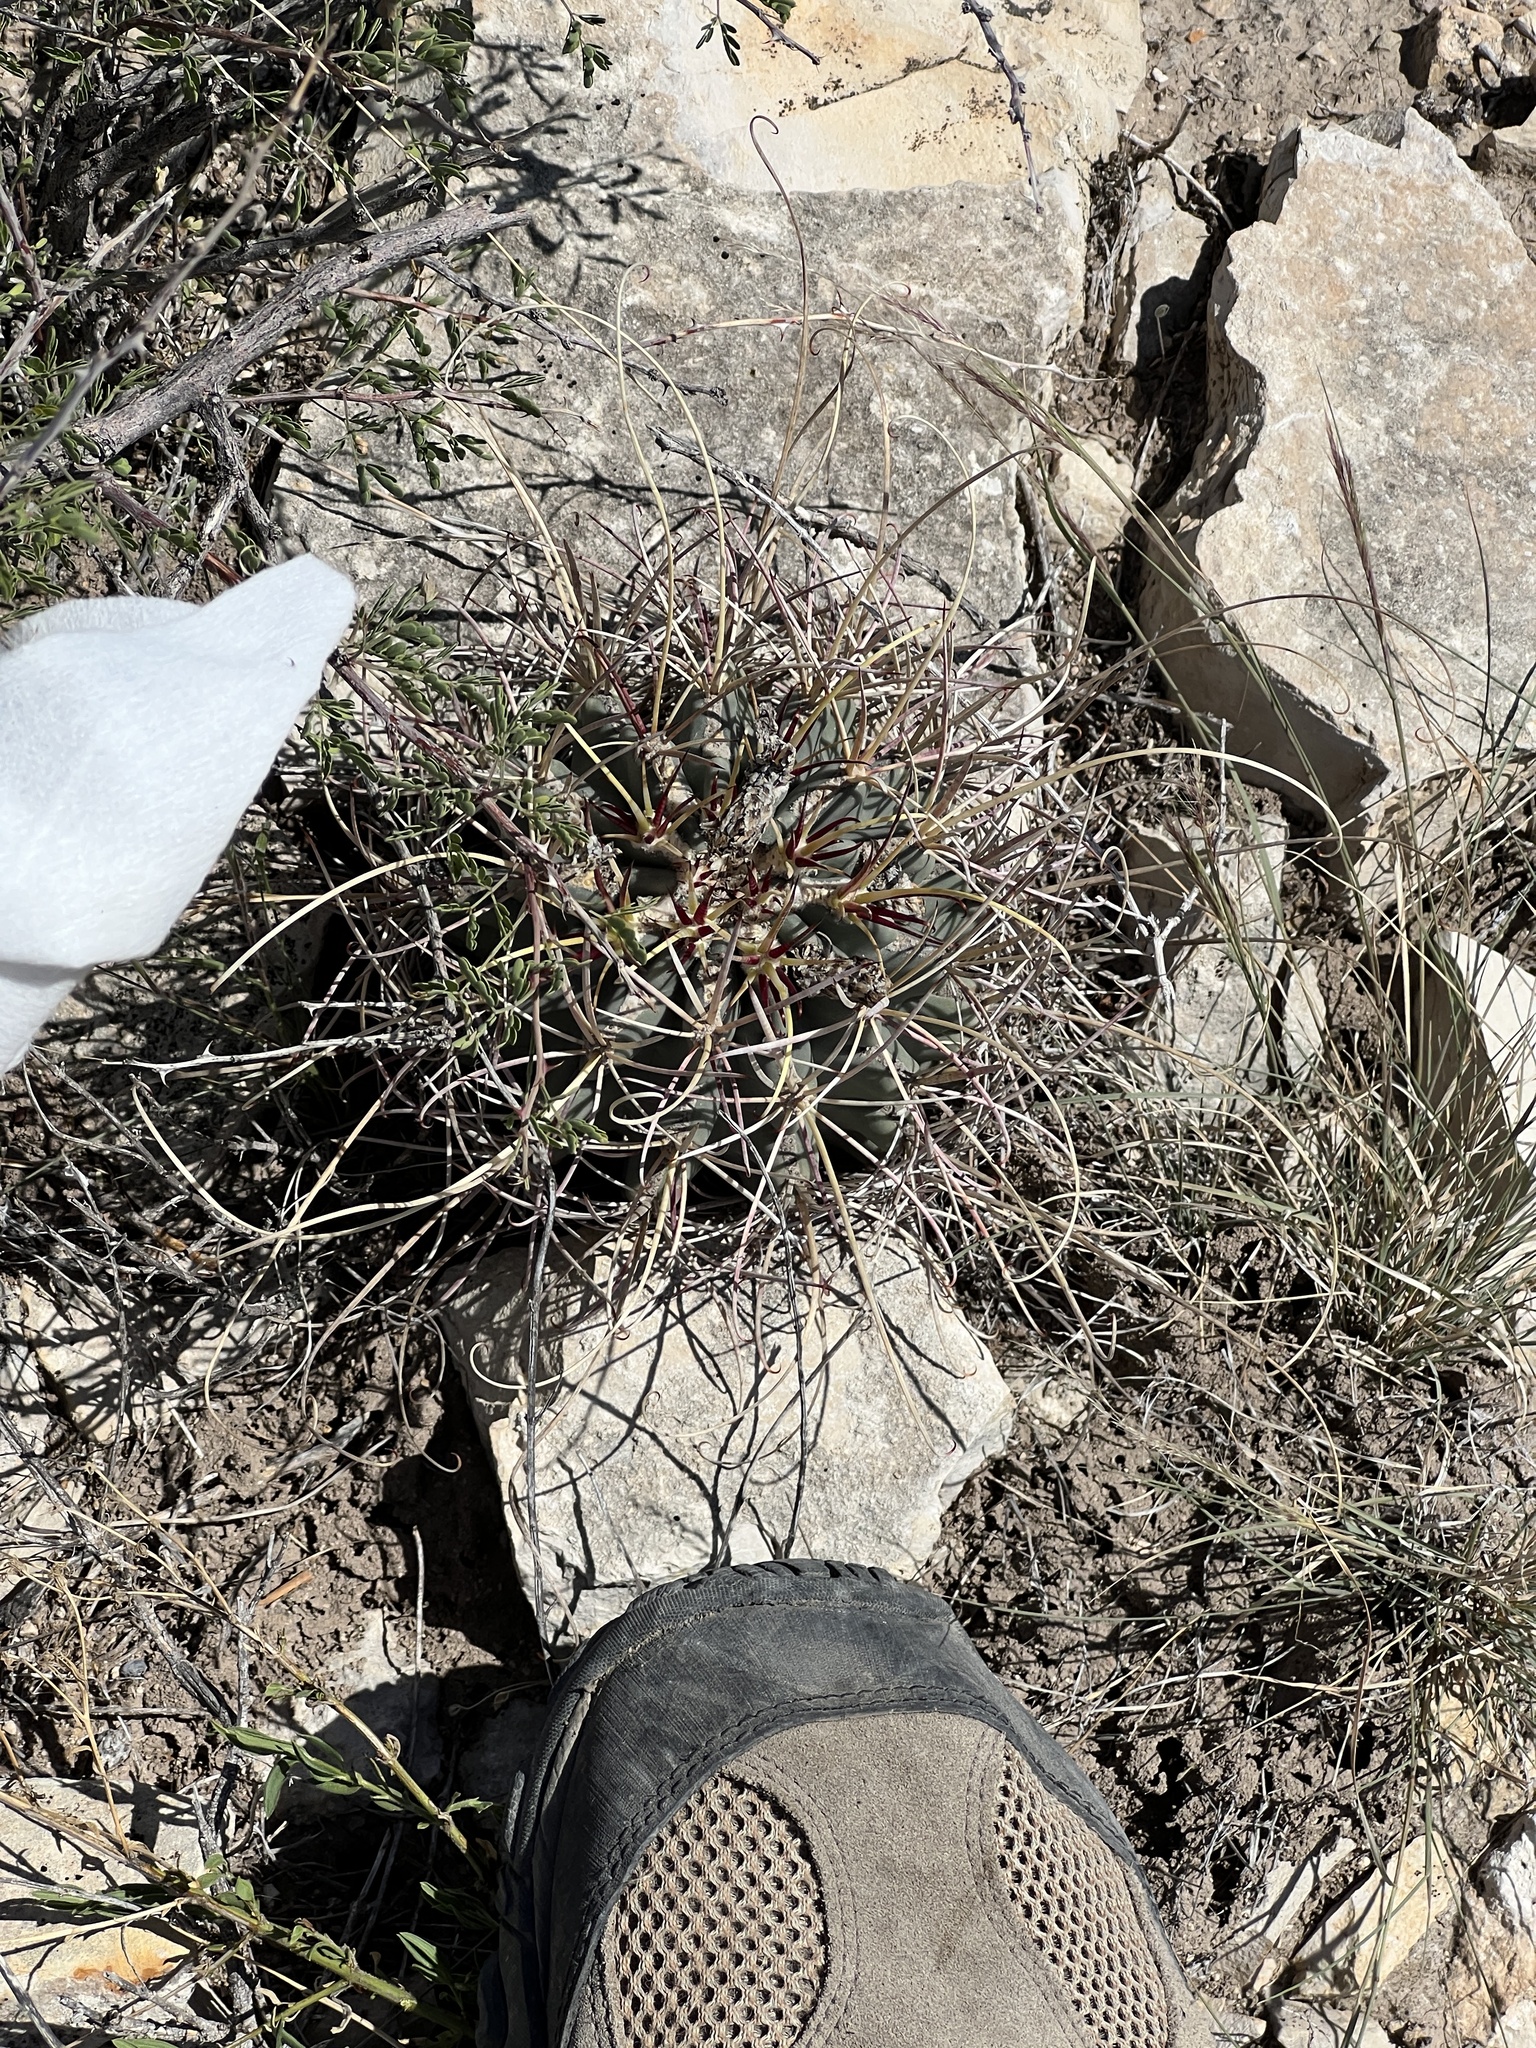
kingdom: Plantae
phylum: Tracheophyta
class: Magnoliopsida
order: Caryophyllales
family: Cactaceae
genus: Ferocactus
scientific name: Ferocactus uncinatus
